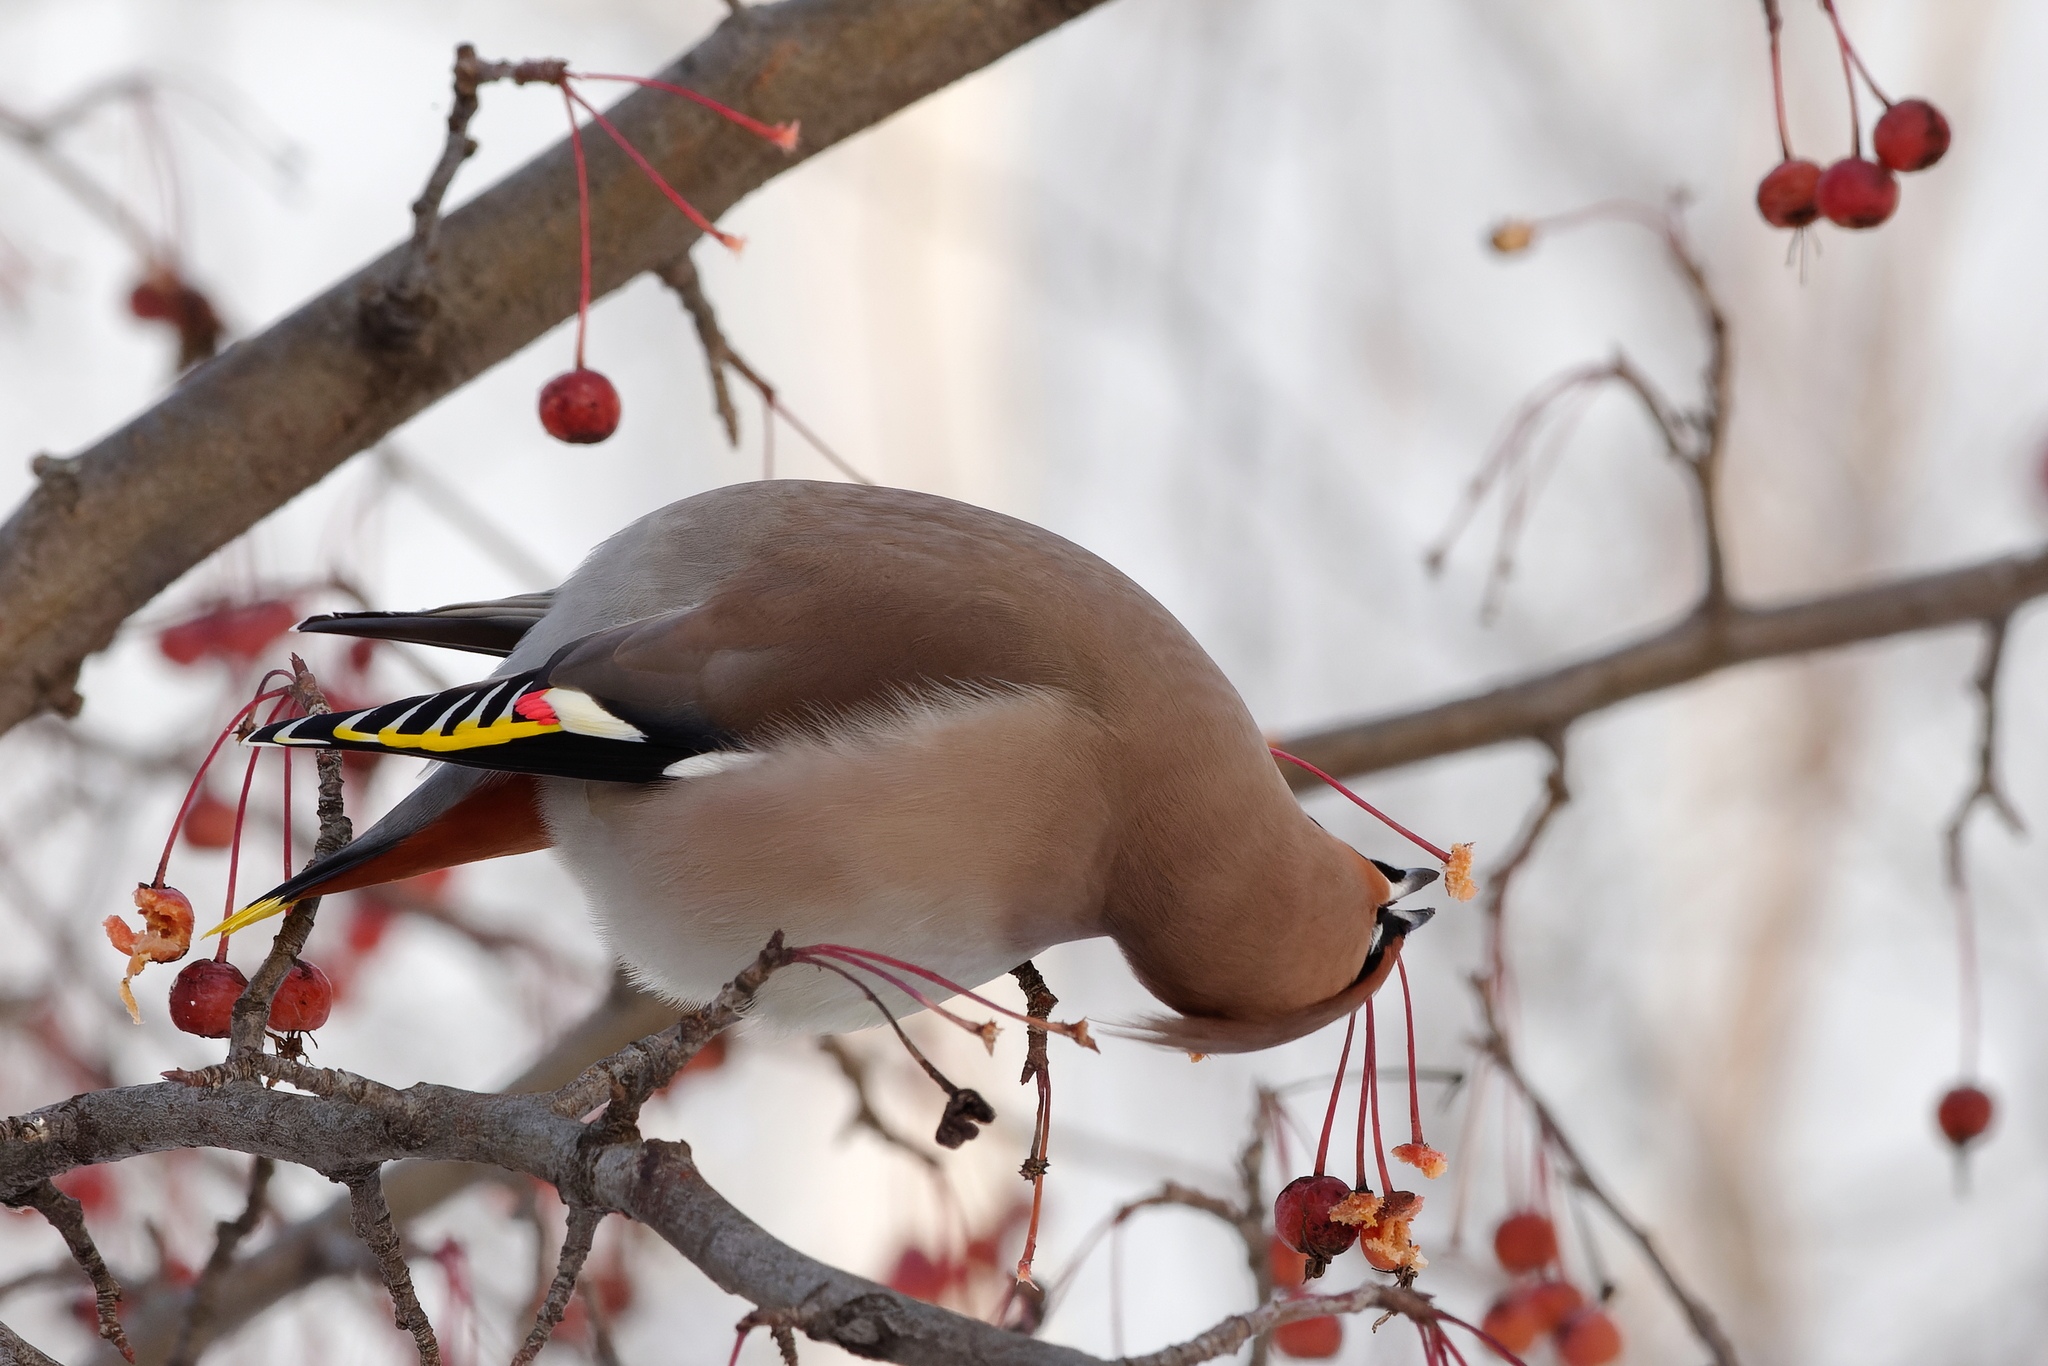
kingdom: Animalia
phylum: Chordata
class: Aves
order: Passeriformes
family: Bombycillidae
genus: Bombycilla
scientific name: Bombycilla garrulus
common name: Bohemian waxwing
